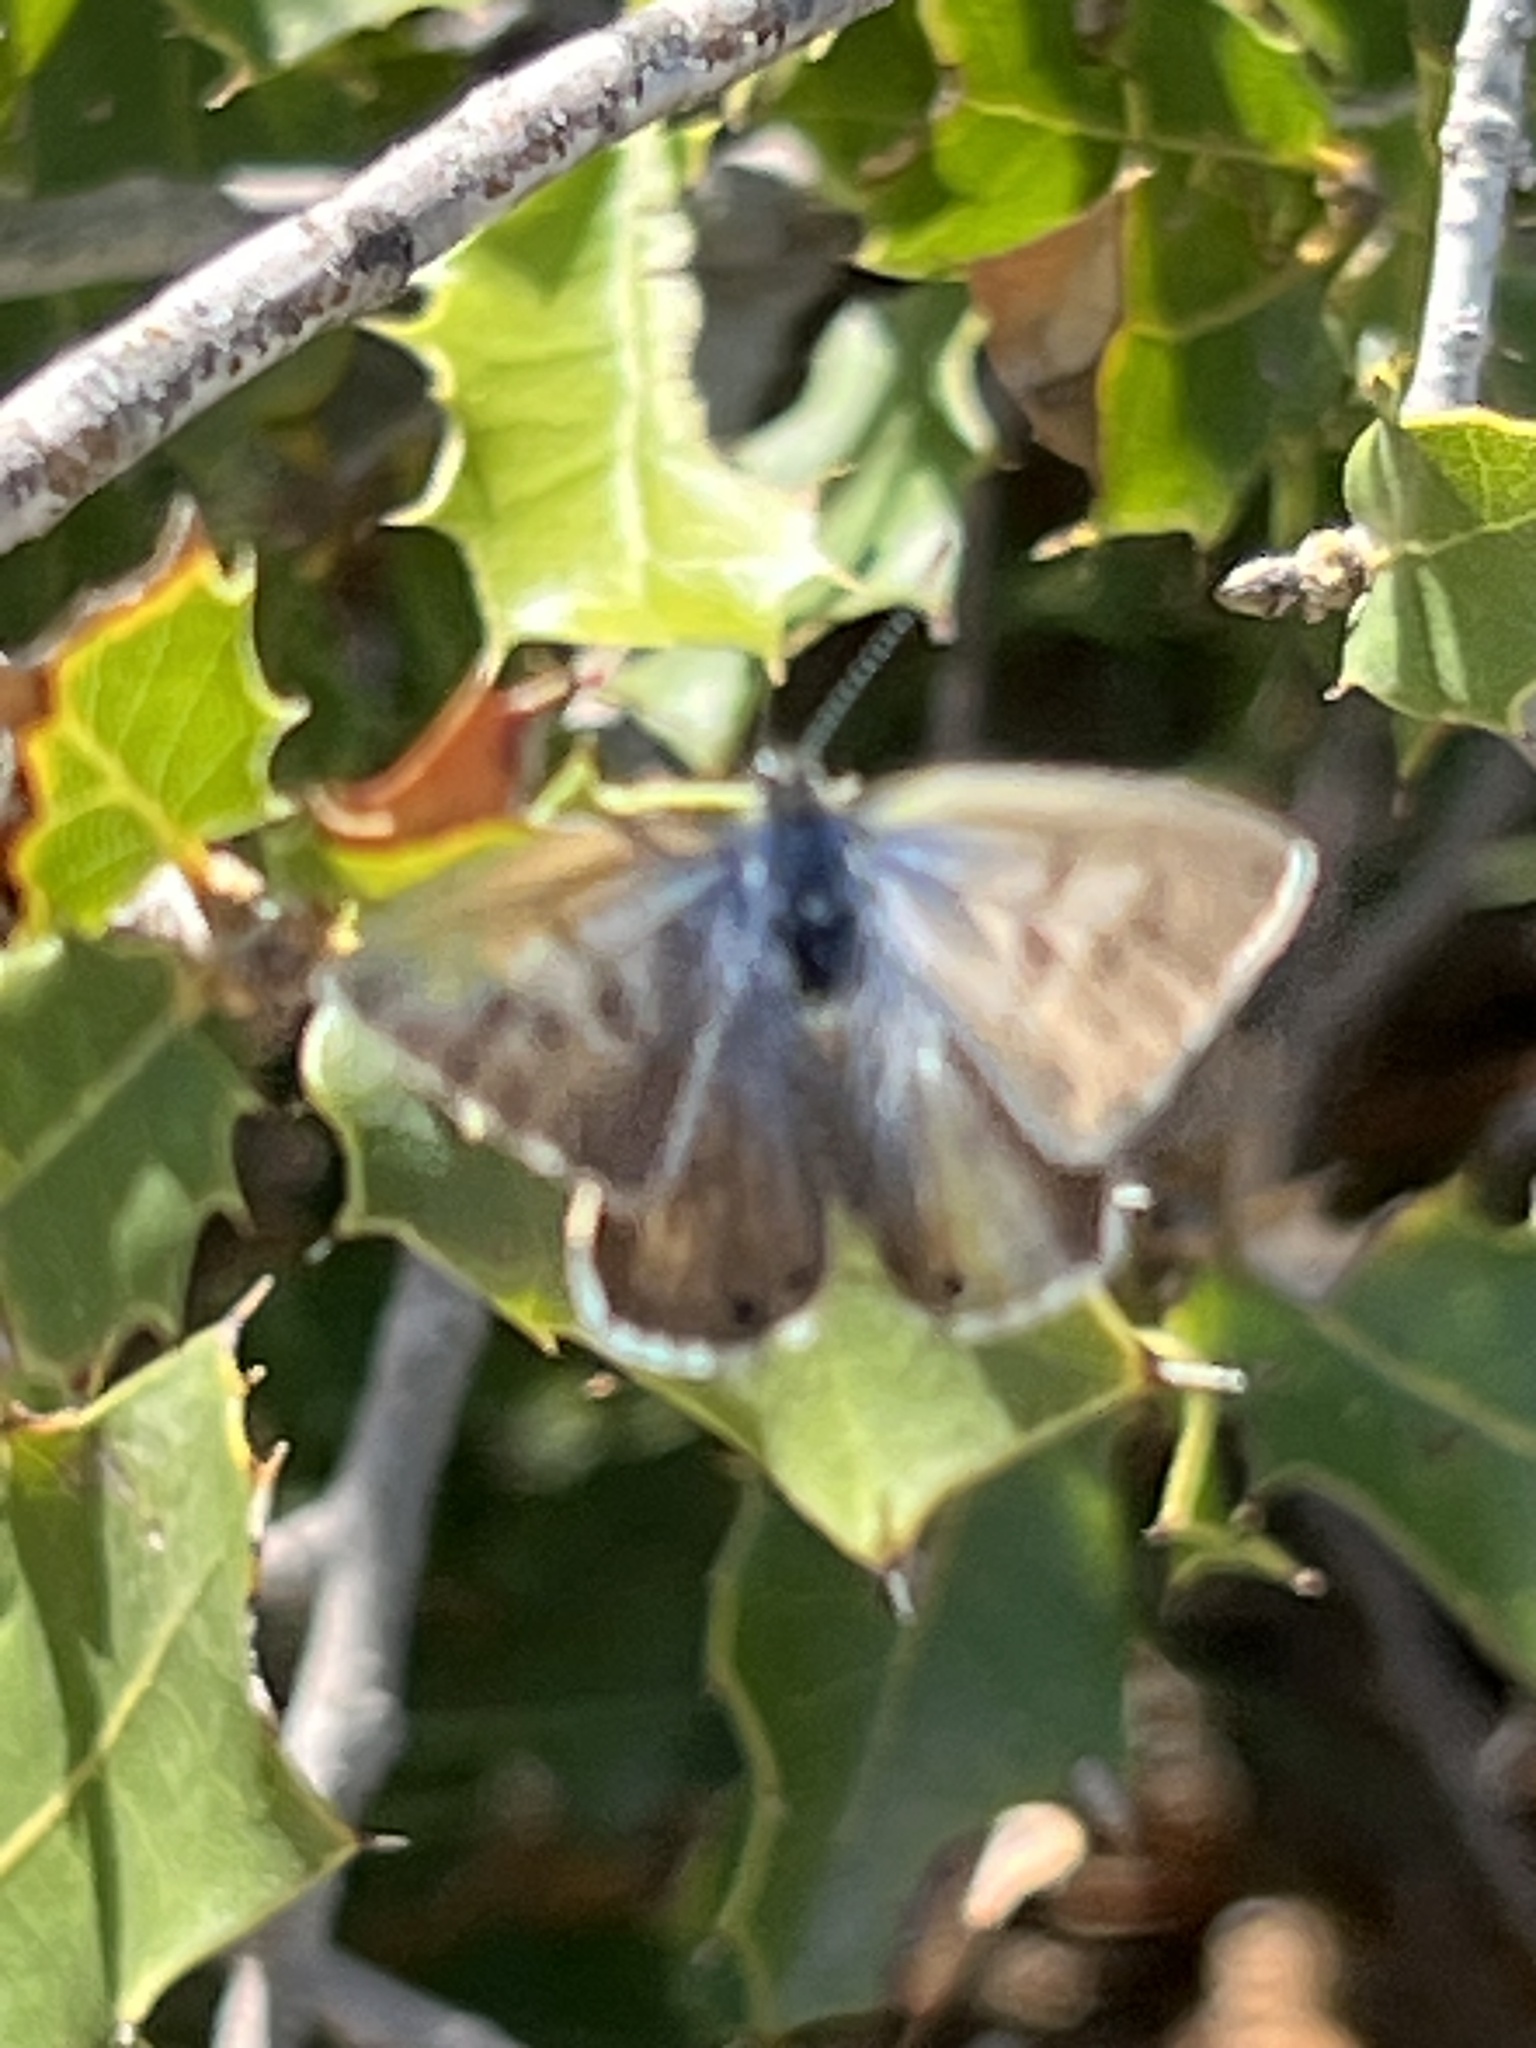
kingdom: Animalia
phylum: Arthropoda
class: Insecta
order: Lepidoptera
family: Lycaenidae
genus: Leptotes
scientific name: Leptotes pirithous
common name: Lang's short-tailed blue
